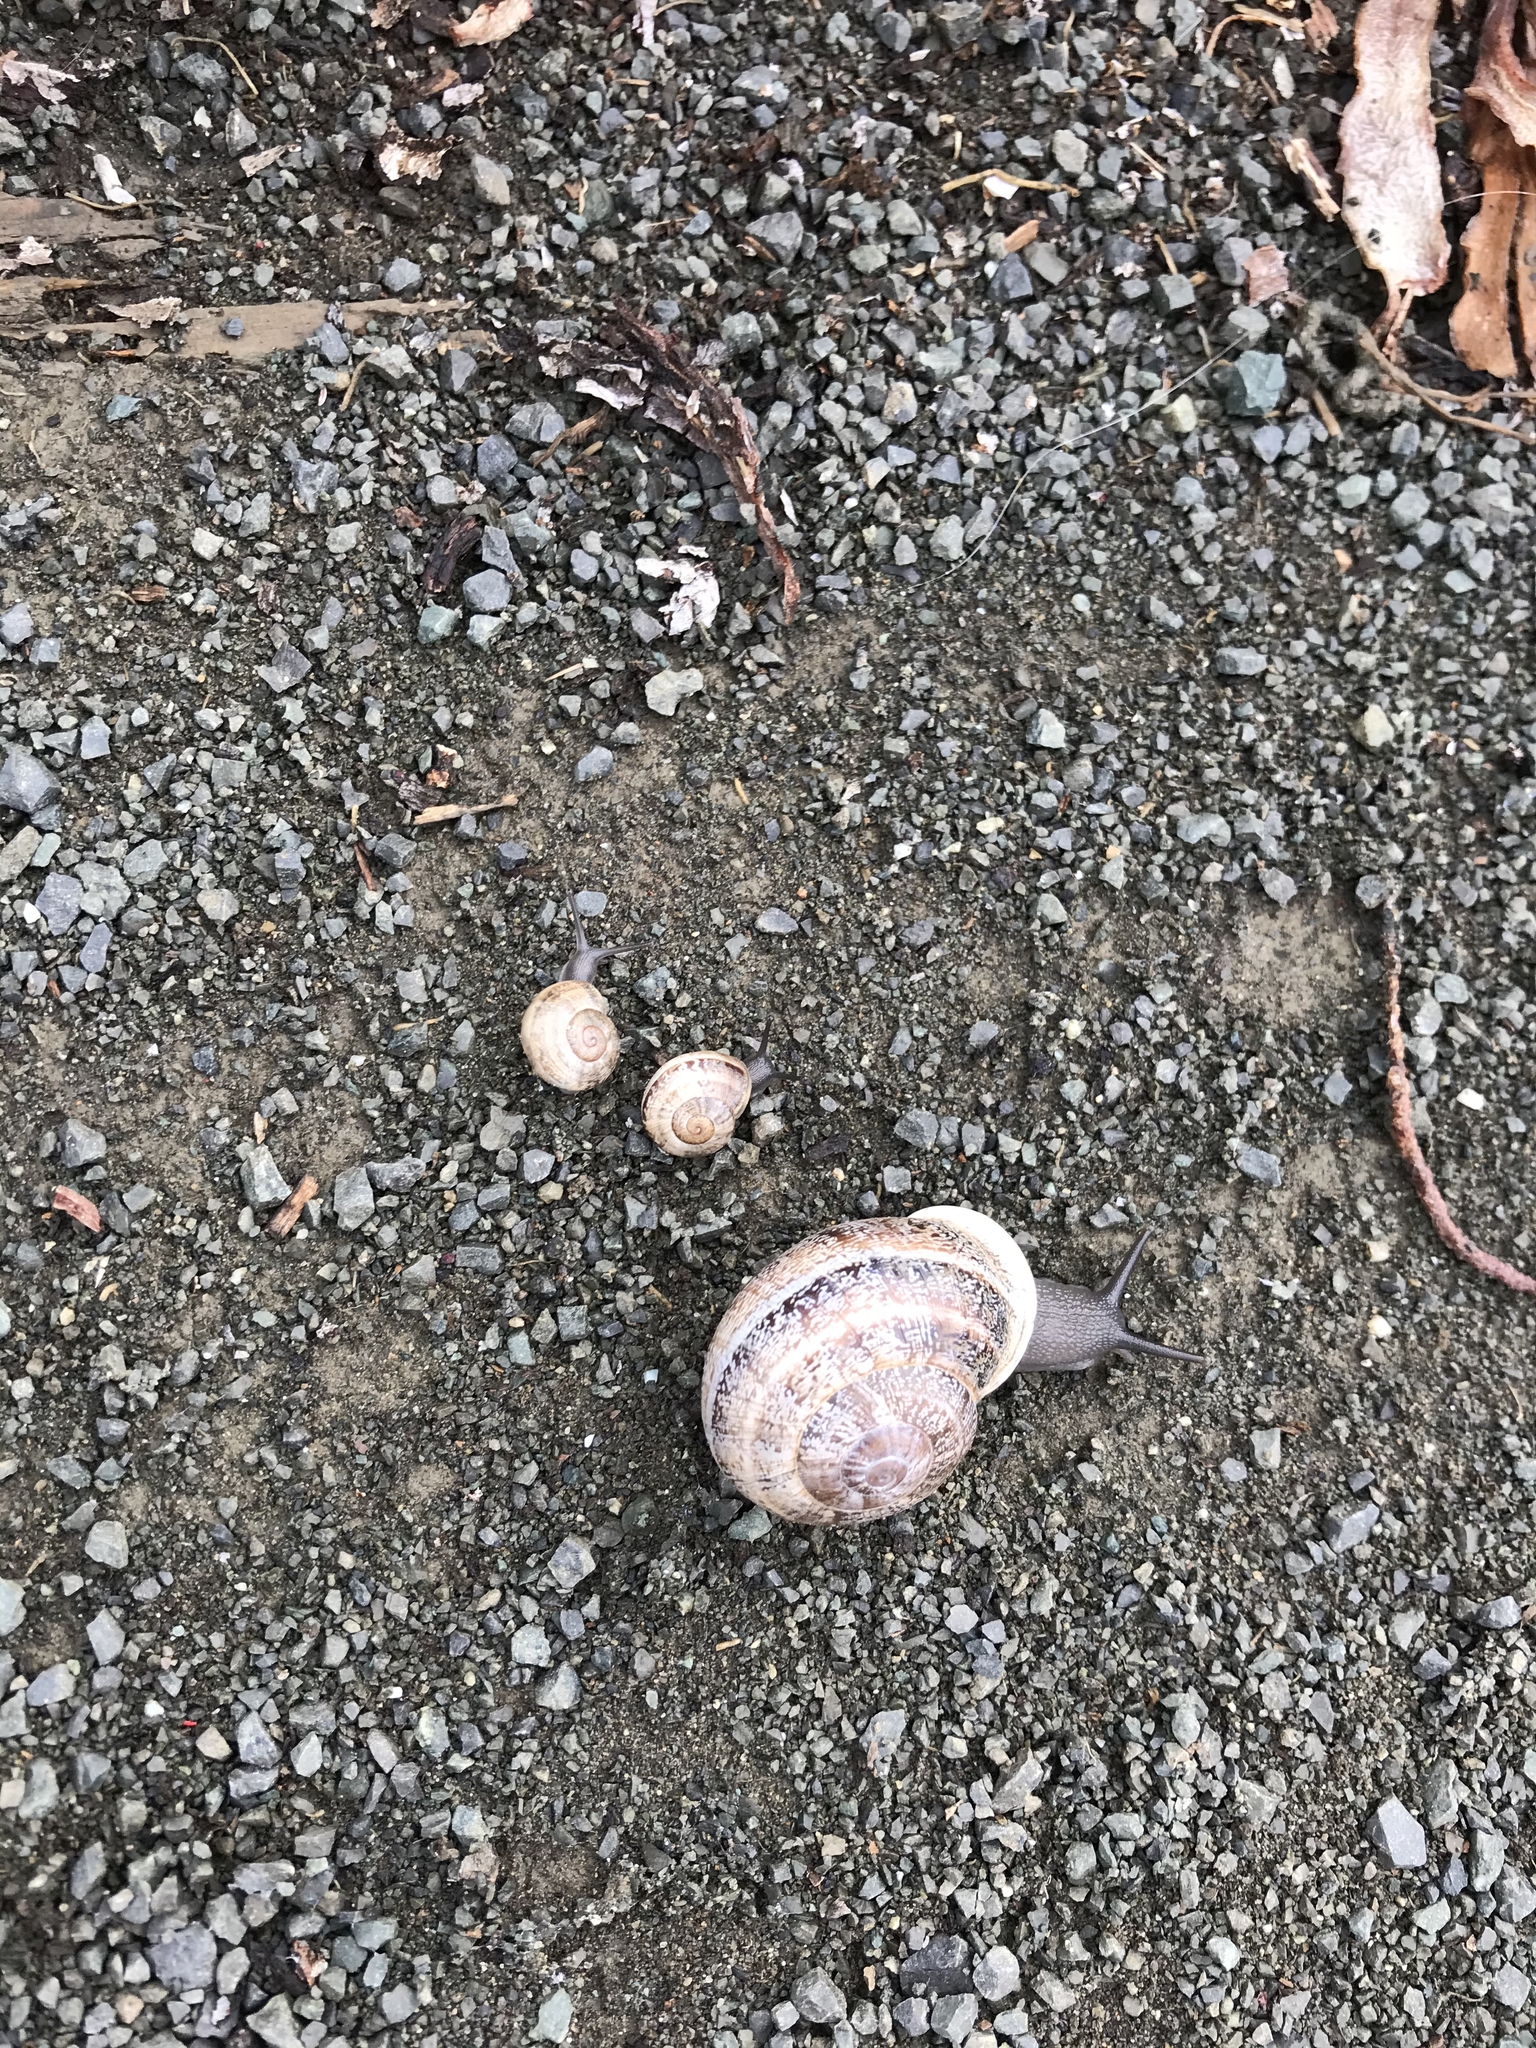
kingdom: Animalia
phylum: Mollusca
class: Gastropoda
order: Stylommatophora
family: Helicidae
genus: Otala
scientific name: Otala lactea
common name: Milk snail
